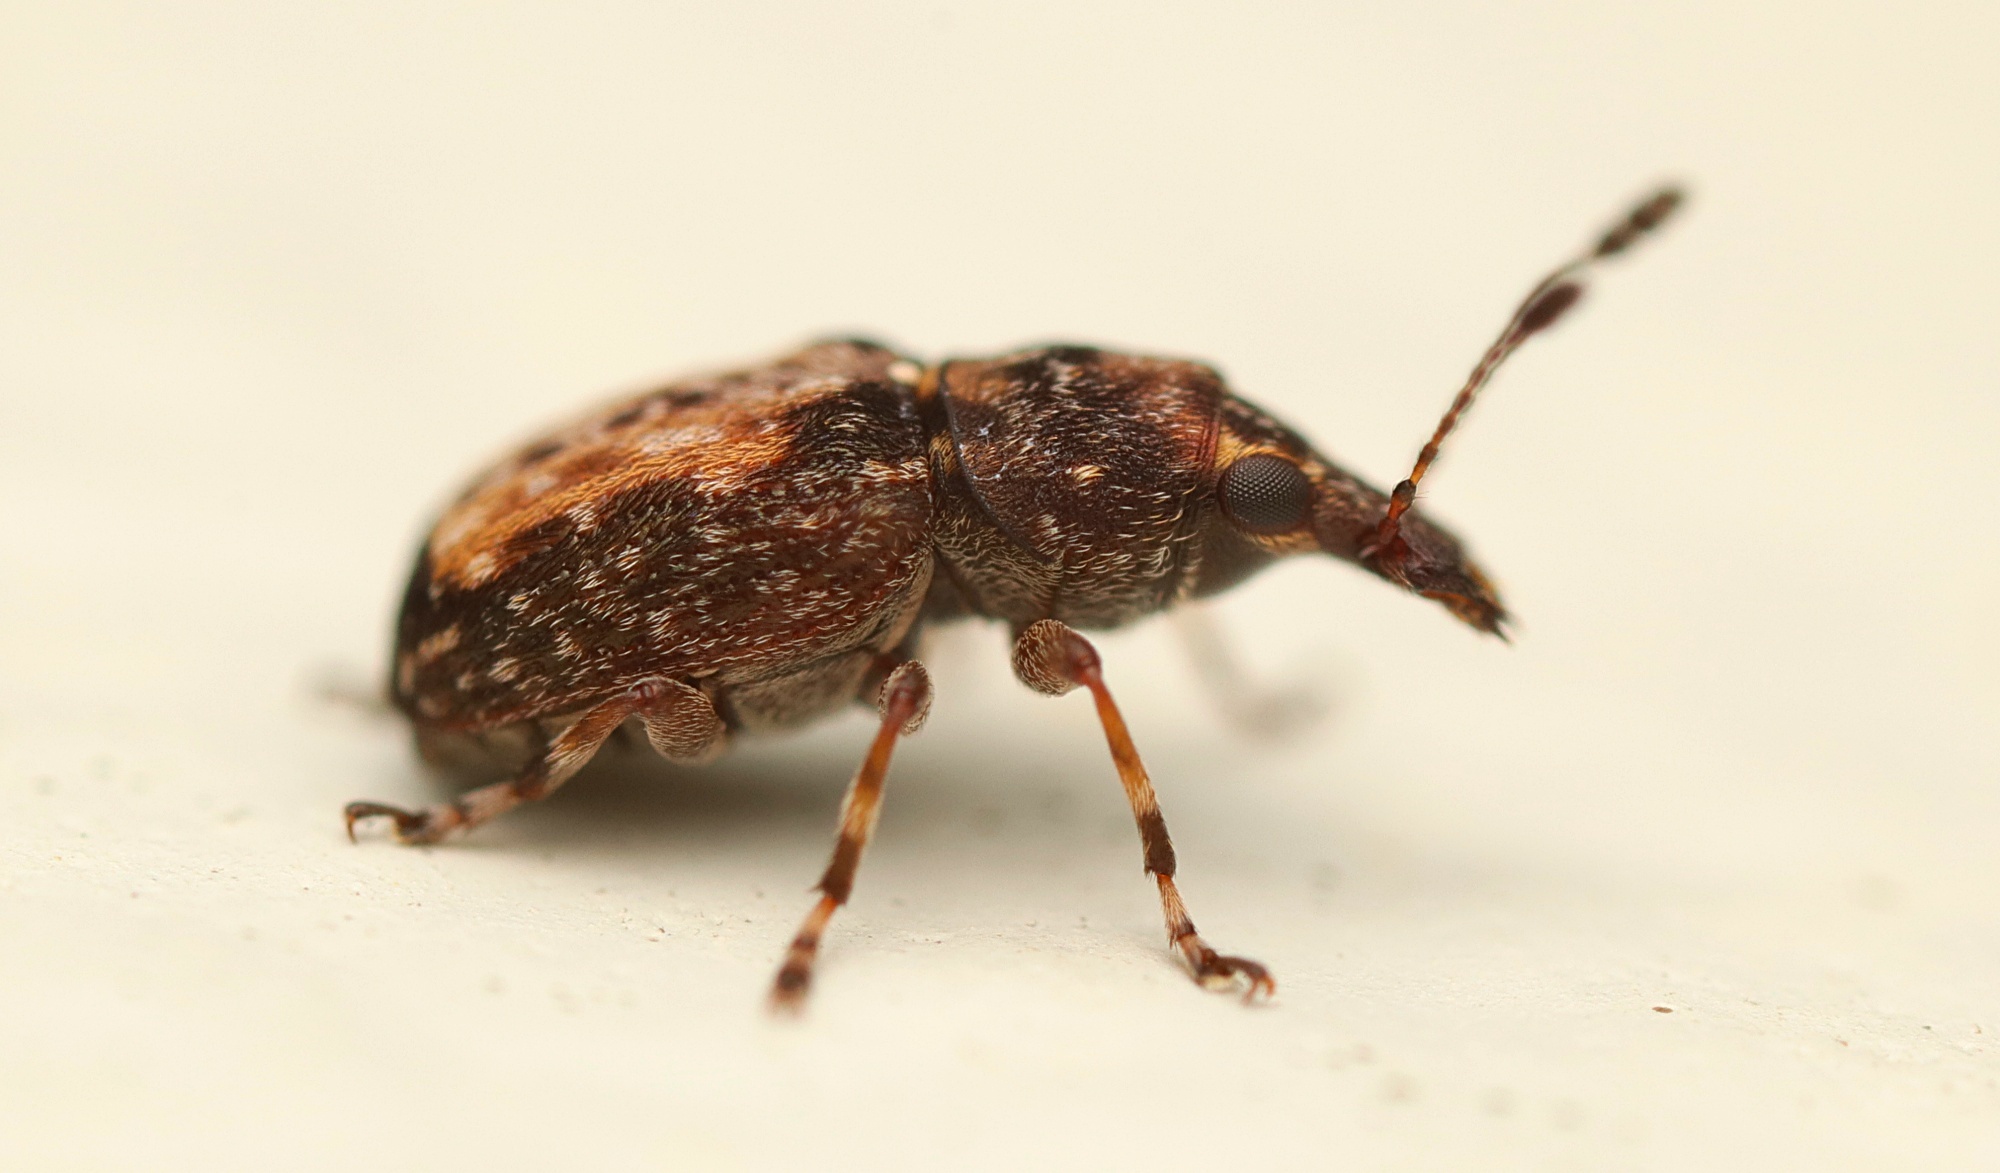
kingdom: Animalia
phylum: Arthropoda
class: Insecta
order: Coleoptera
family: Anthribidae
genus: Sharpius
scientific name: Sharpius
